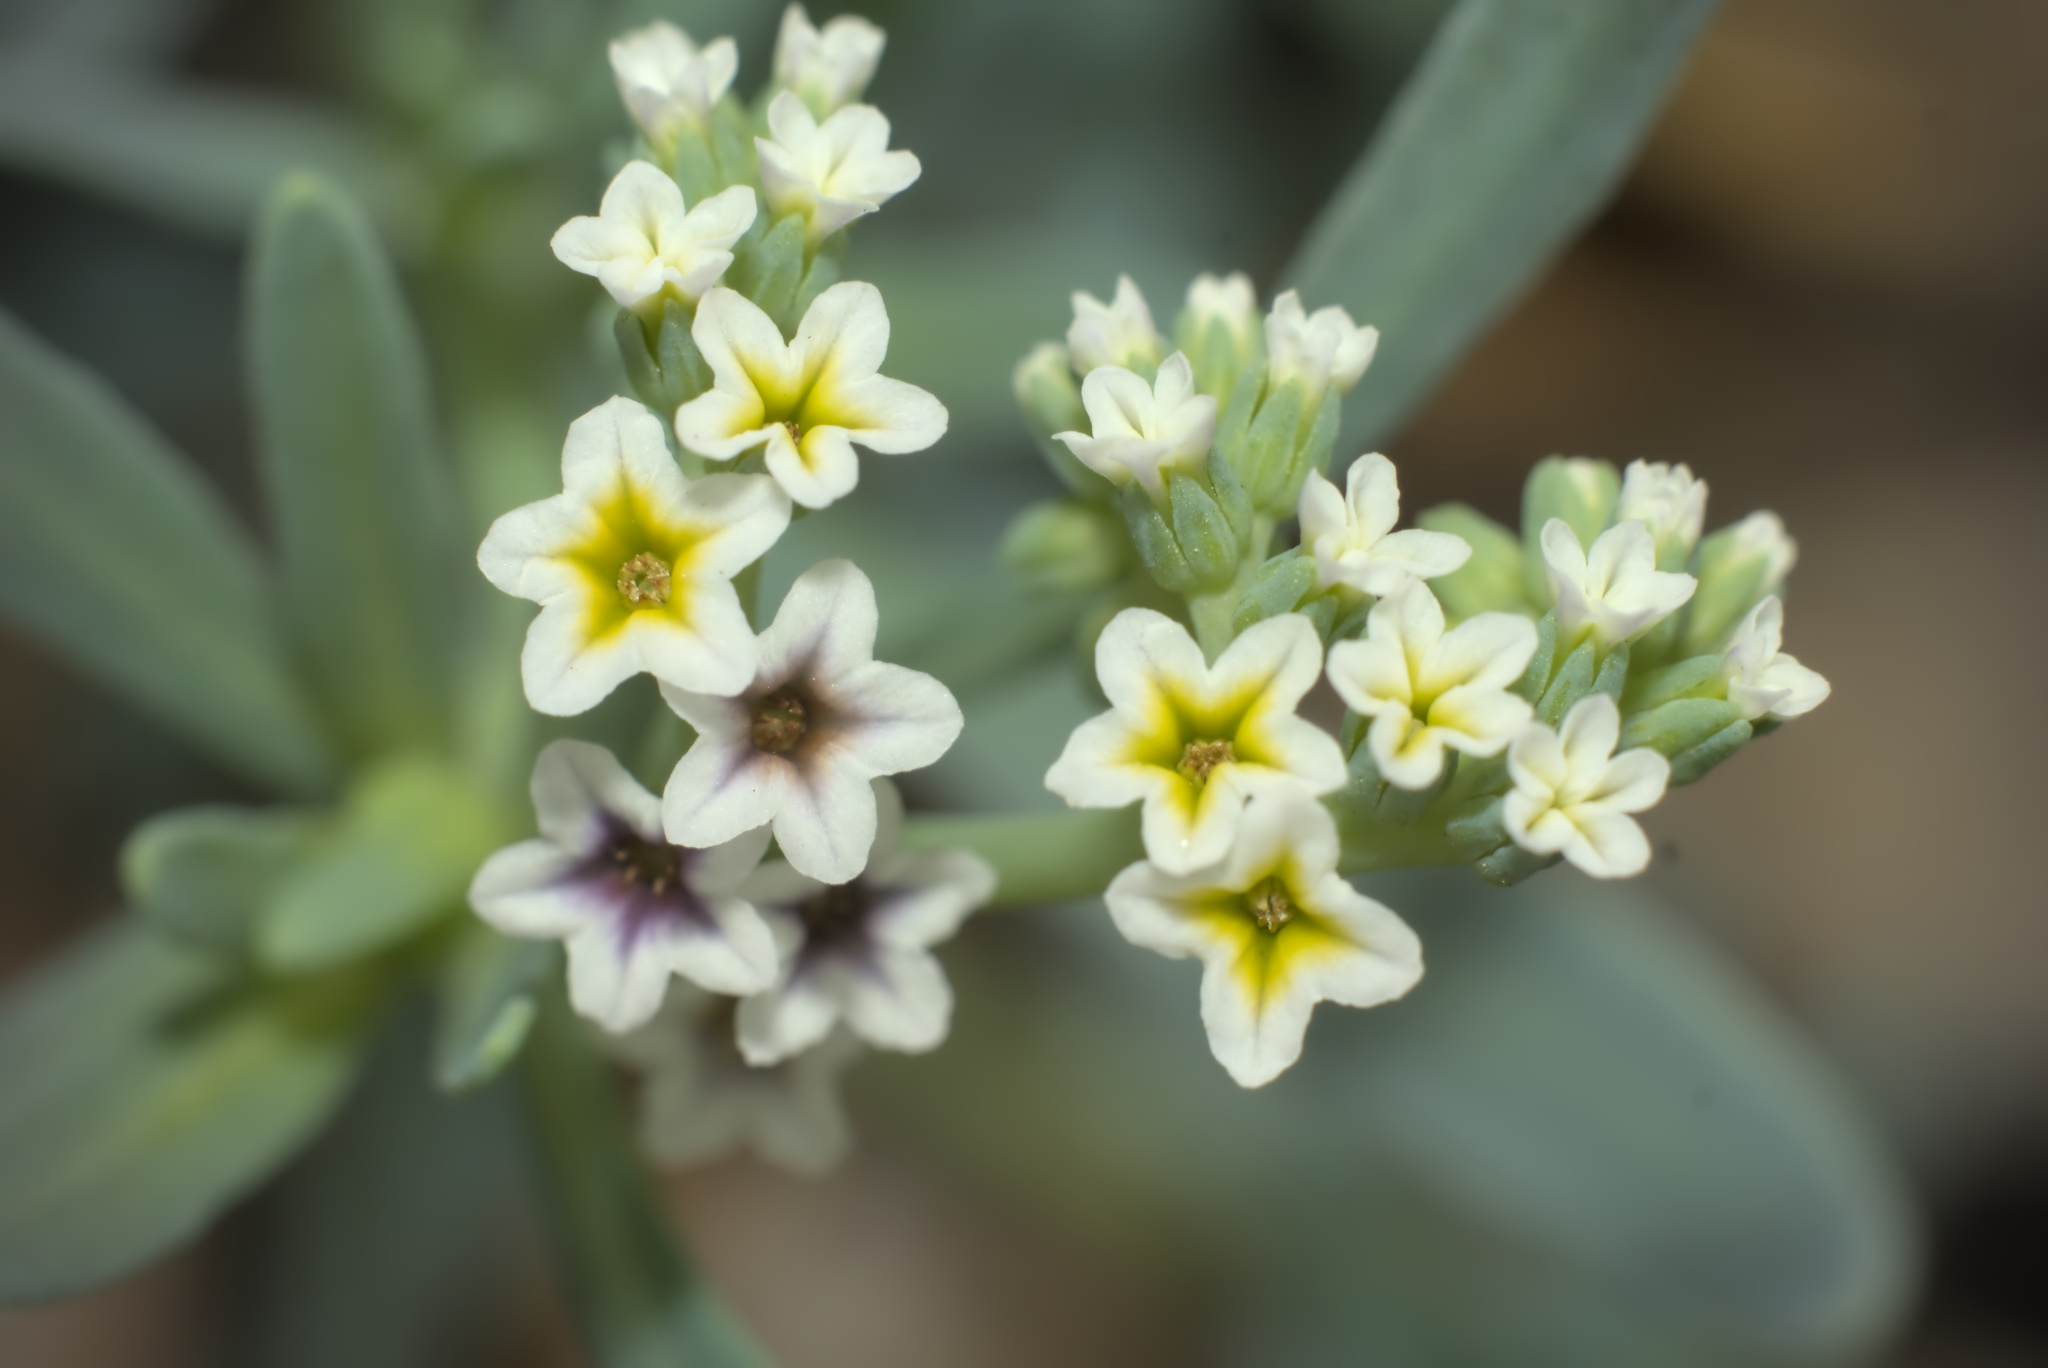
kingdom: Plantae
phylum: Tracheophyta
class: Magnoliopsida
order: Boraginales
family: Heliotropiaceae
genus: Heliotropium
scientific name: Heliotropium curassavicum
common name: Seaside heliotrope
